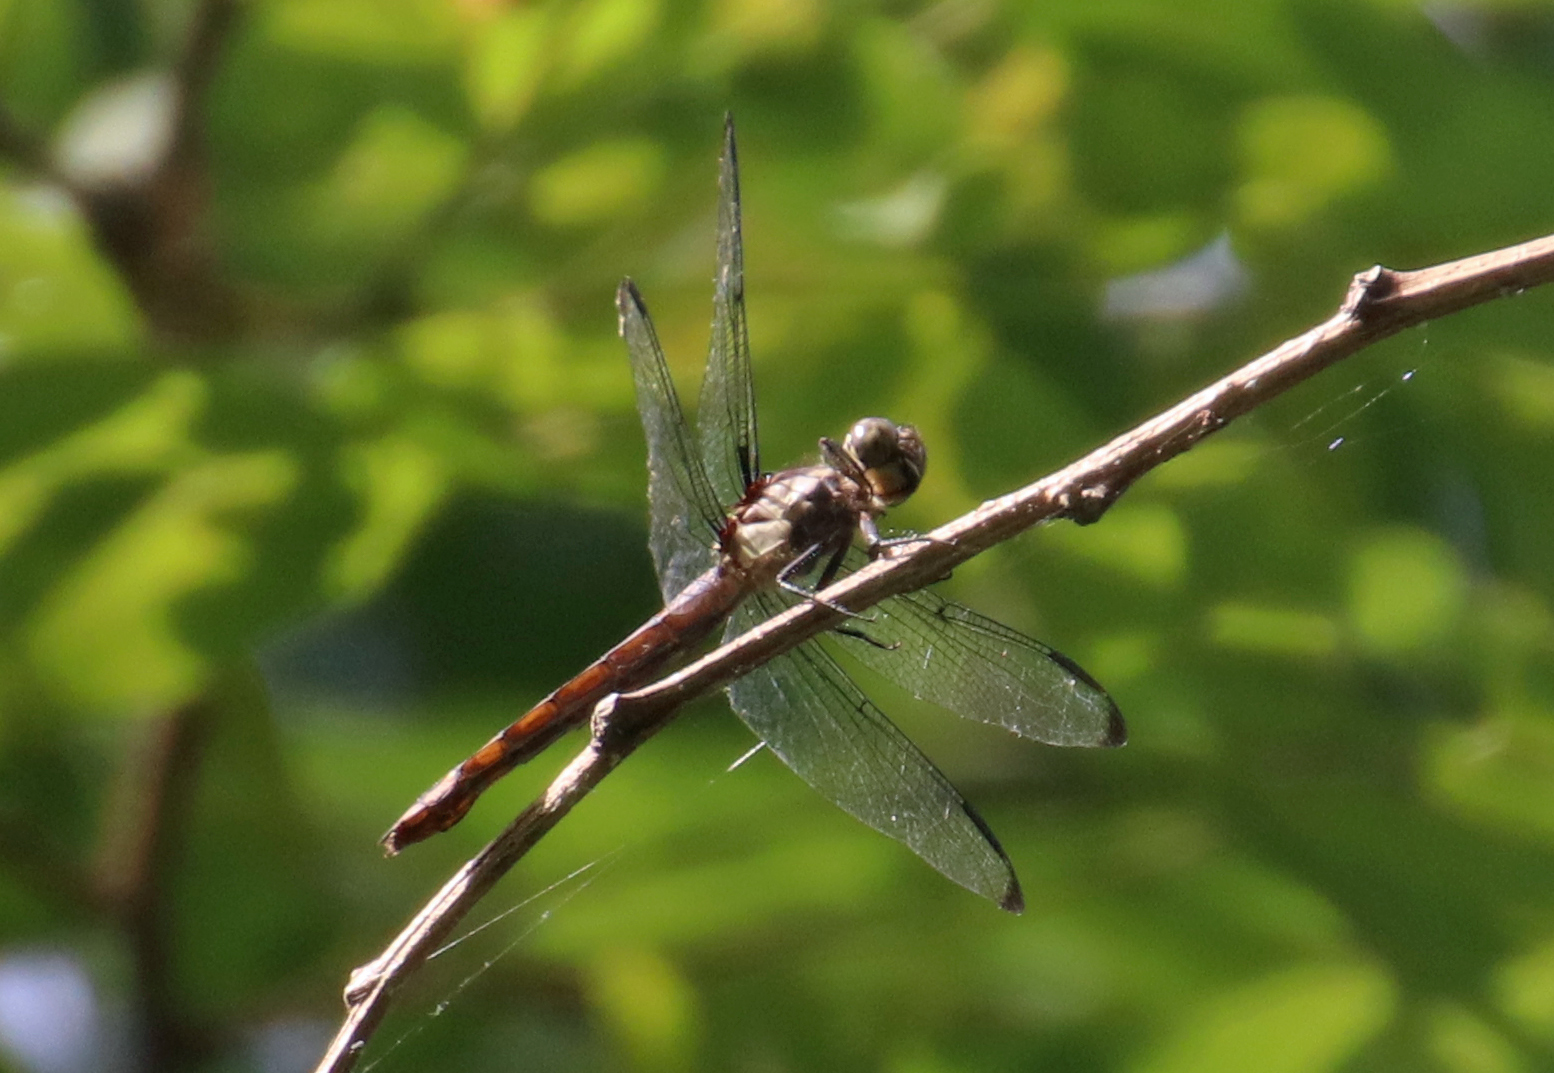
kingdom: Animalia
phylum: Arthropoda
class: Insecta
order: Odonata
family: Libellulidae
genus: Libellula
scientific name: Libellula incesta
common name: Slaty skimmer
